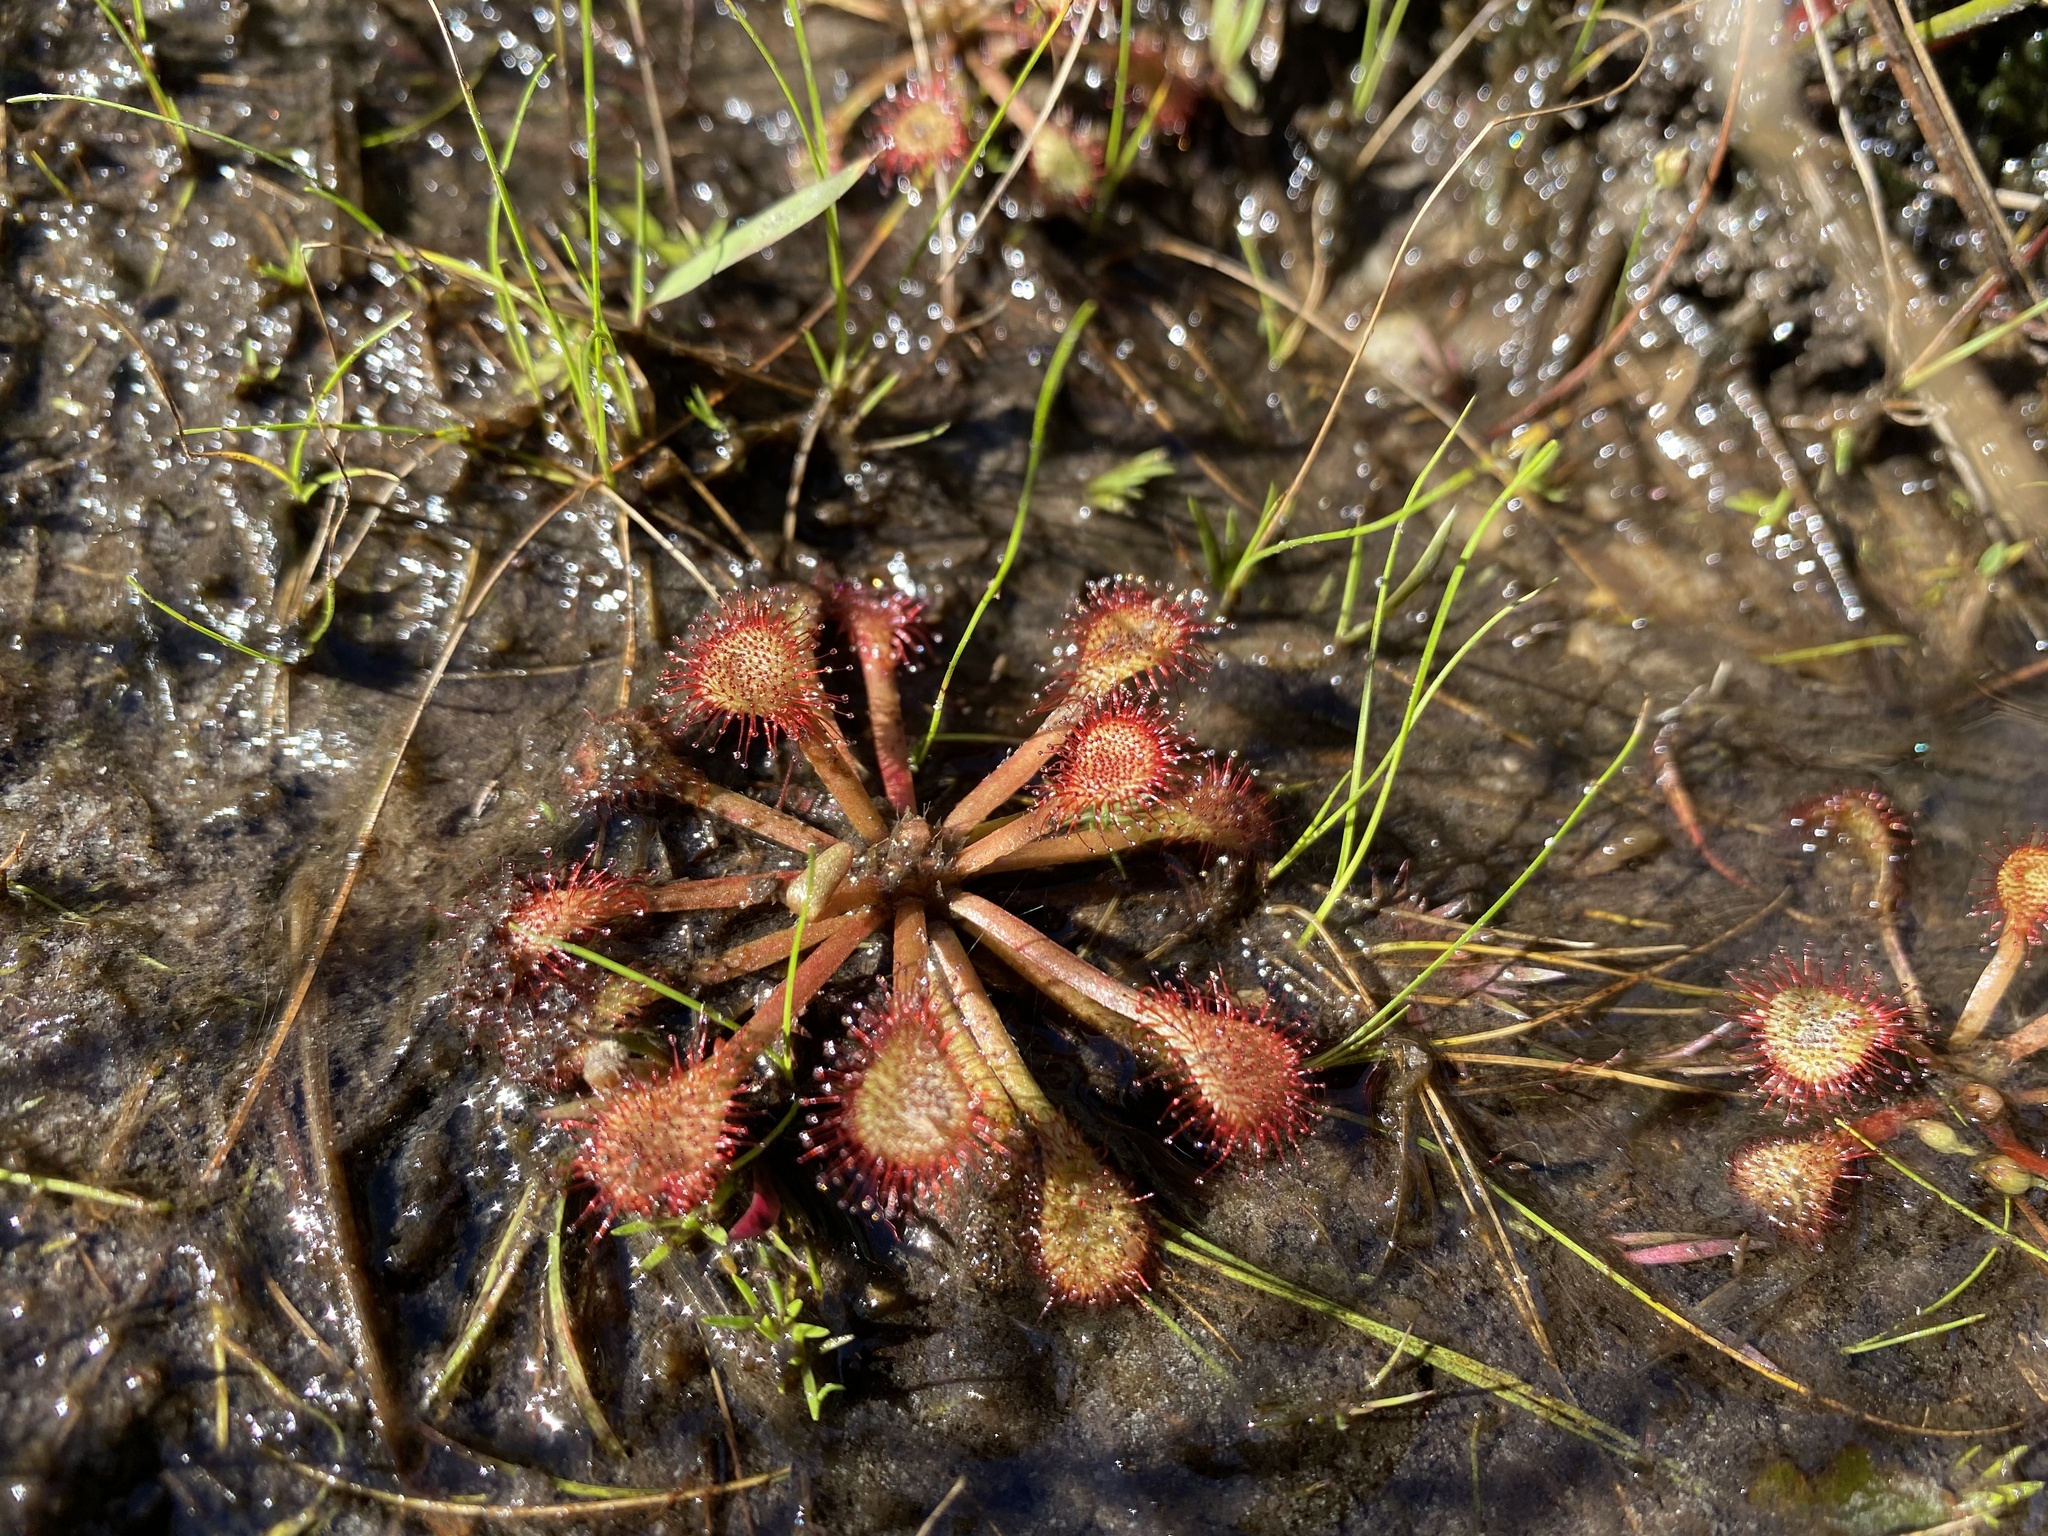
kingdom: Plantae
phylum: Tracheophyta
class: Magnoliopsida
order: Caryophyllales
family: Droseraceae
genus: Drosera
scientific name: Drosera capillaris
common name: Pink sundew
